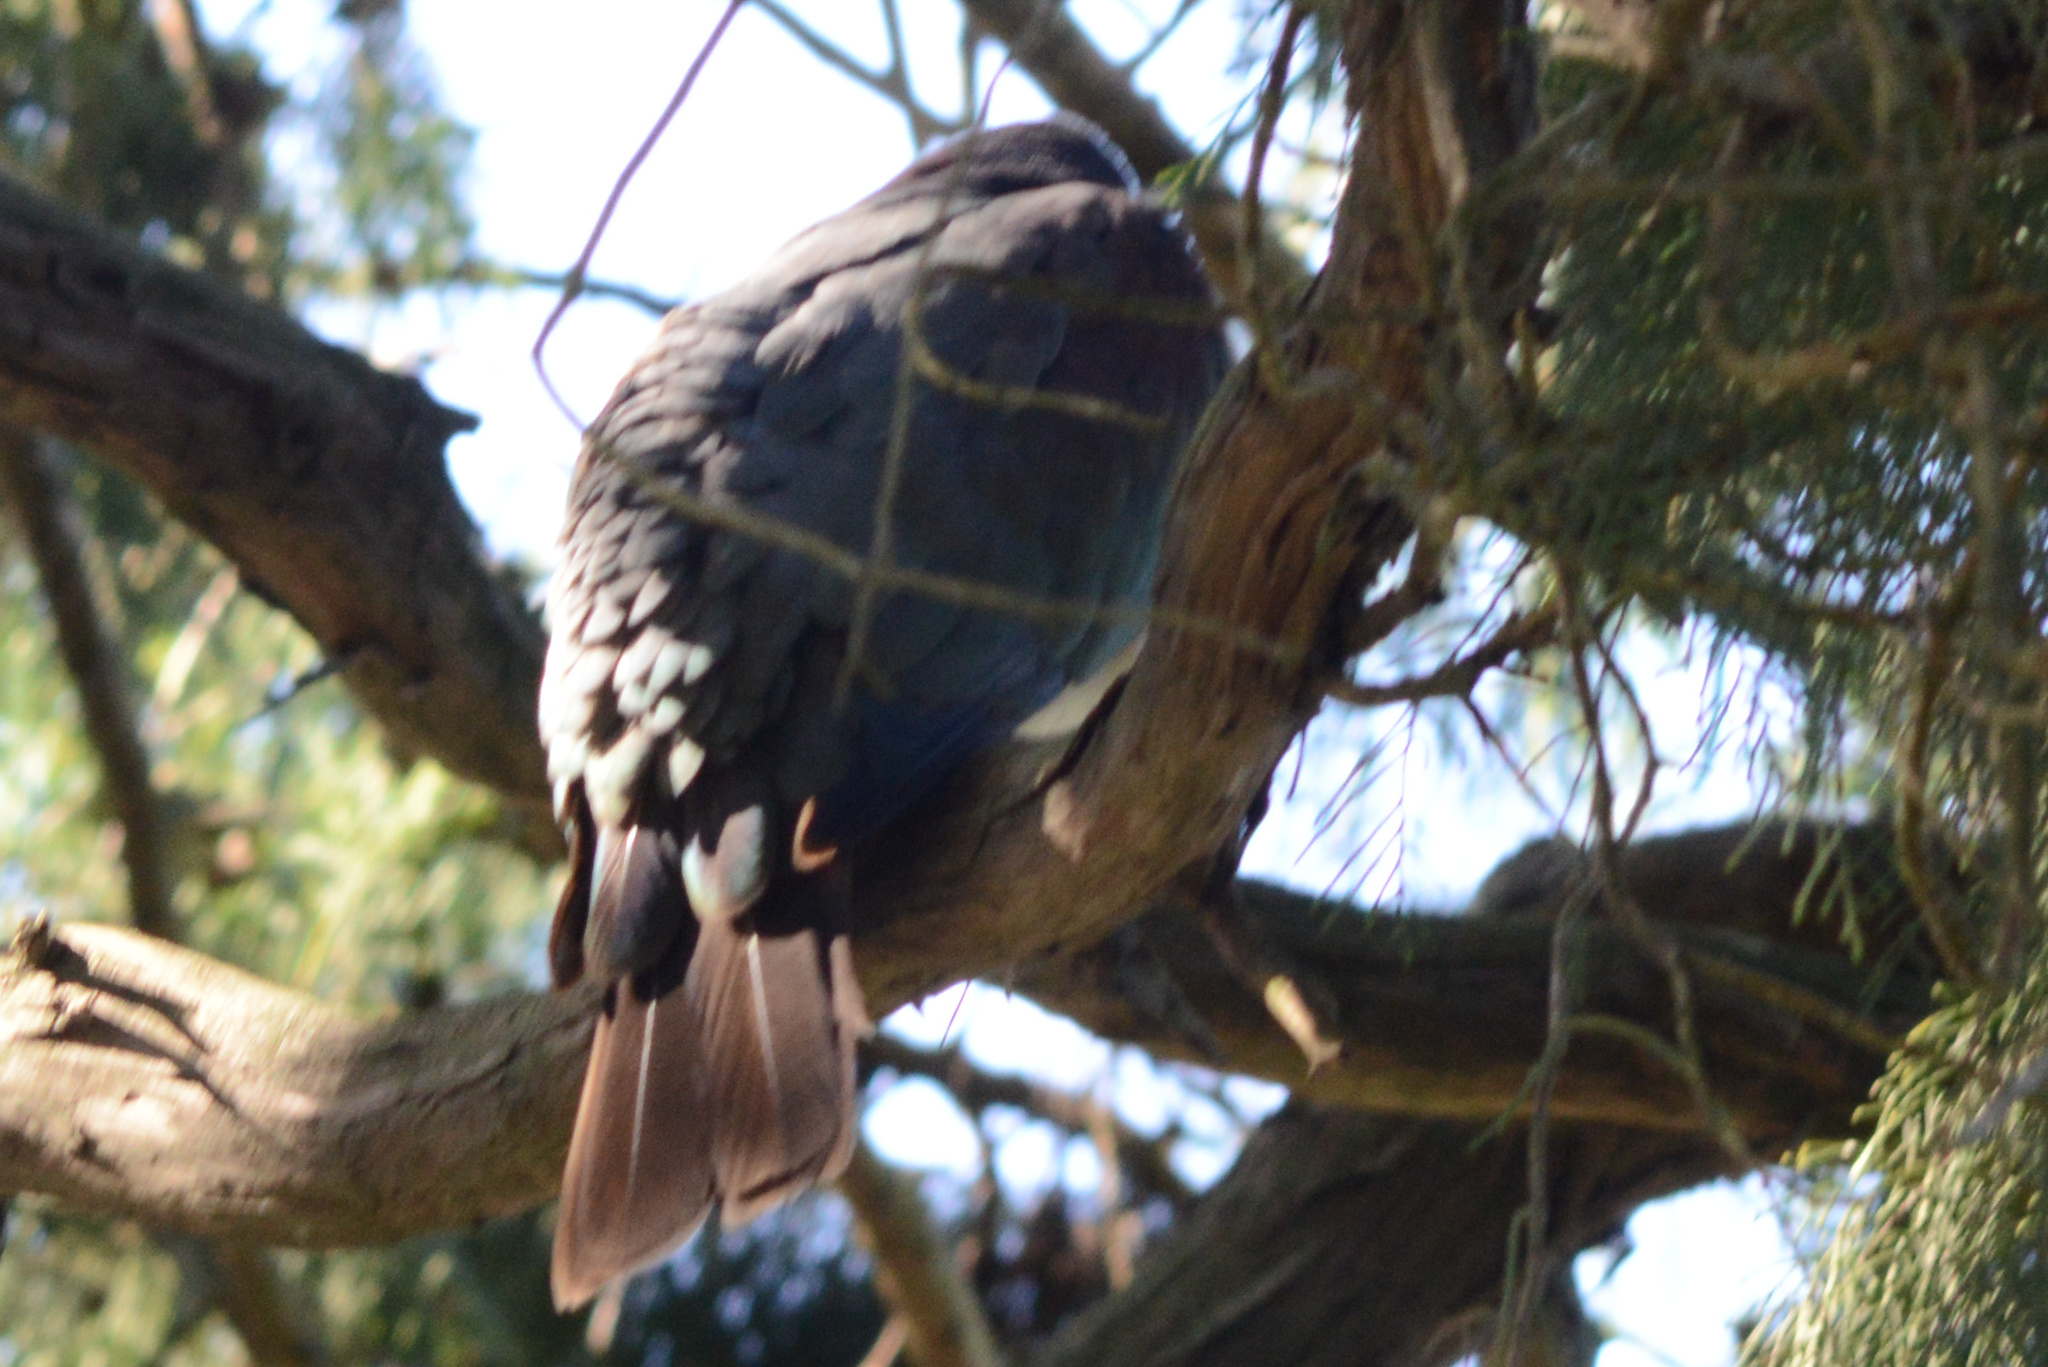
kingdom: Animalia
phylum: Chordata
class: Aves
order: Columbiformes
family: Columbidae
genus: Hemiphaga
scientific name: Hemiphaga novaeseelandiae
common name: New zealand pigeon
